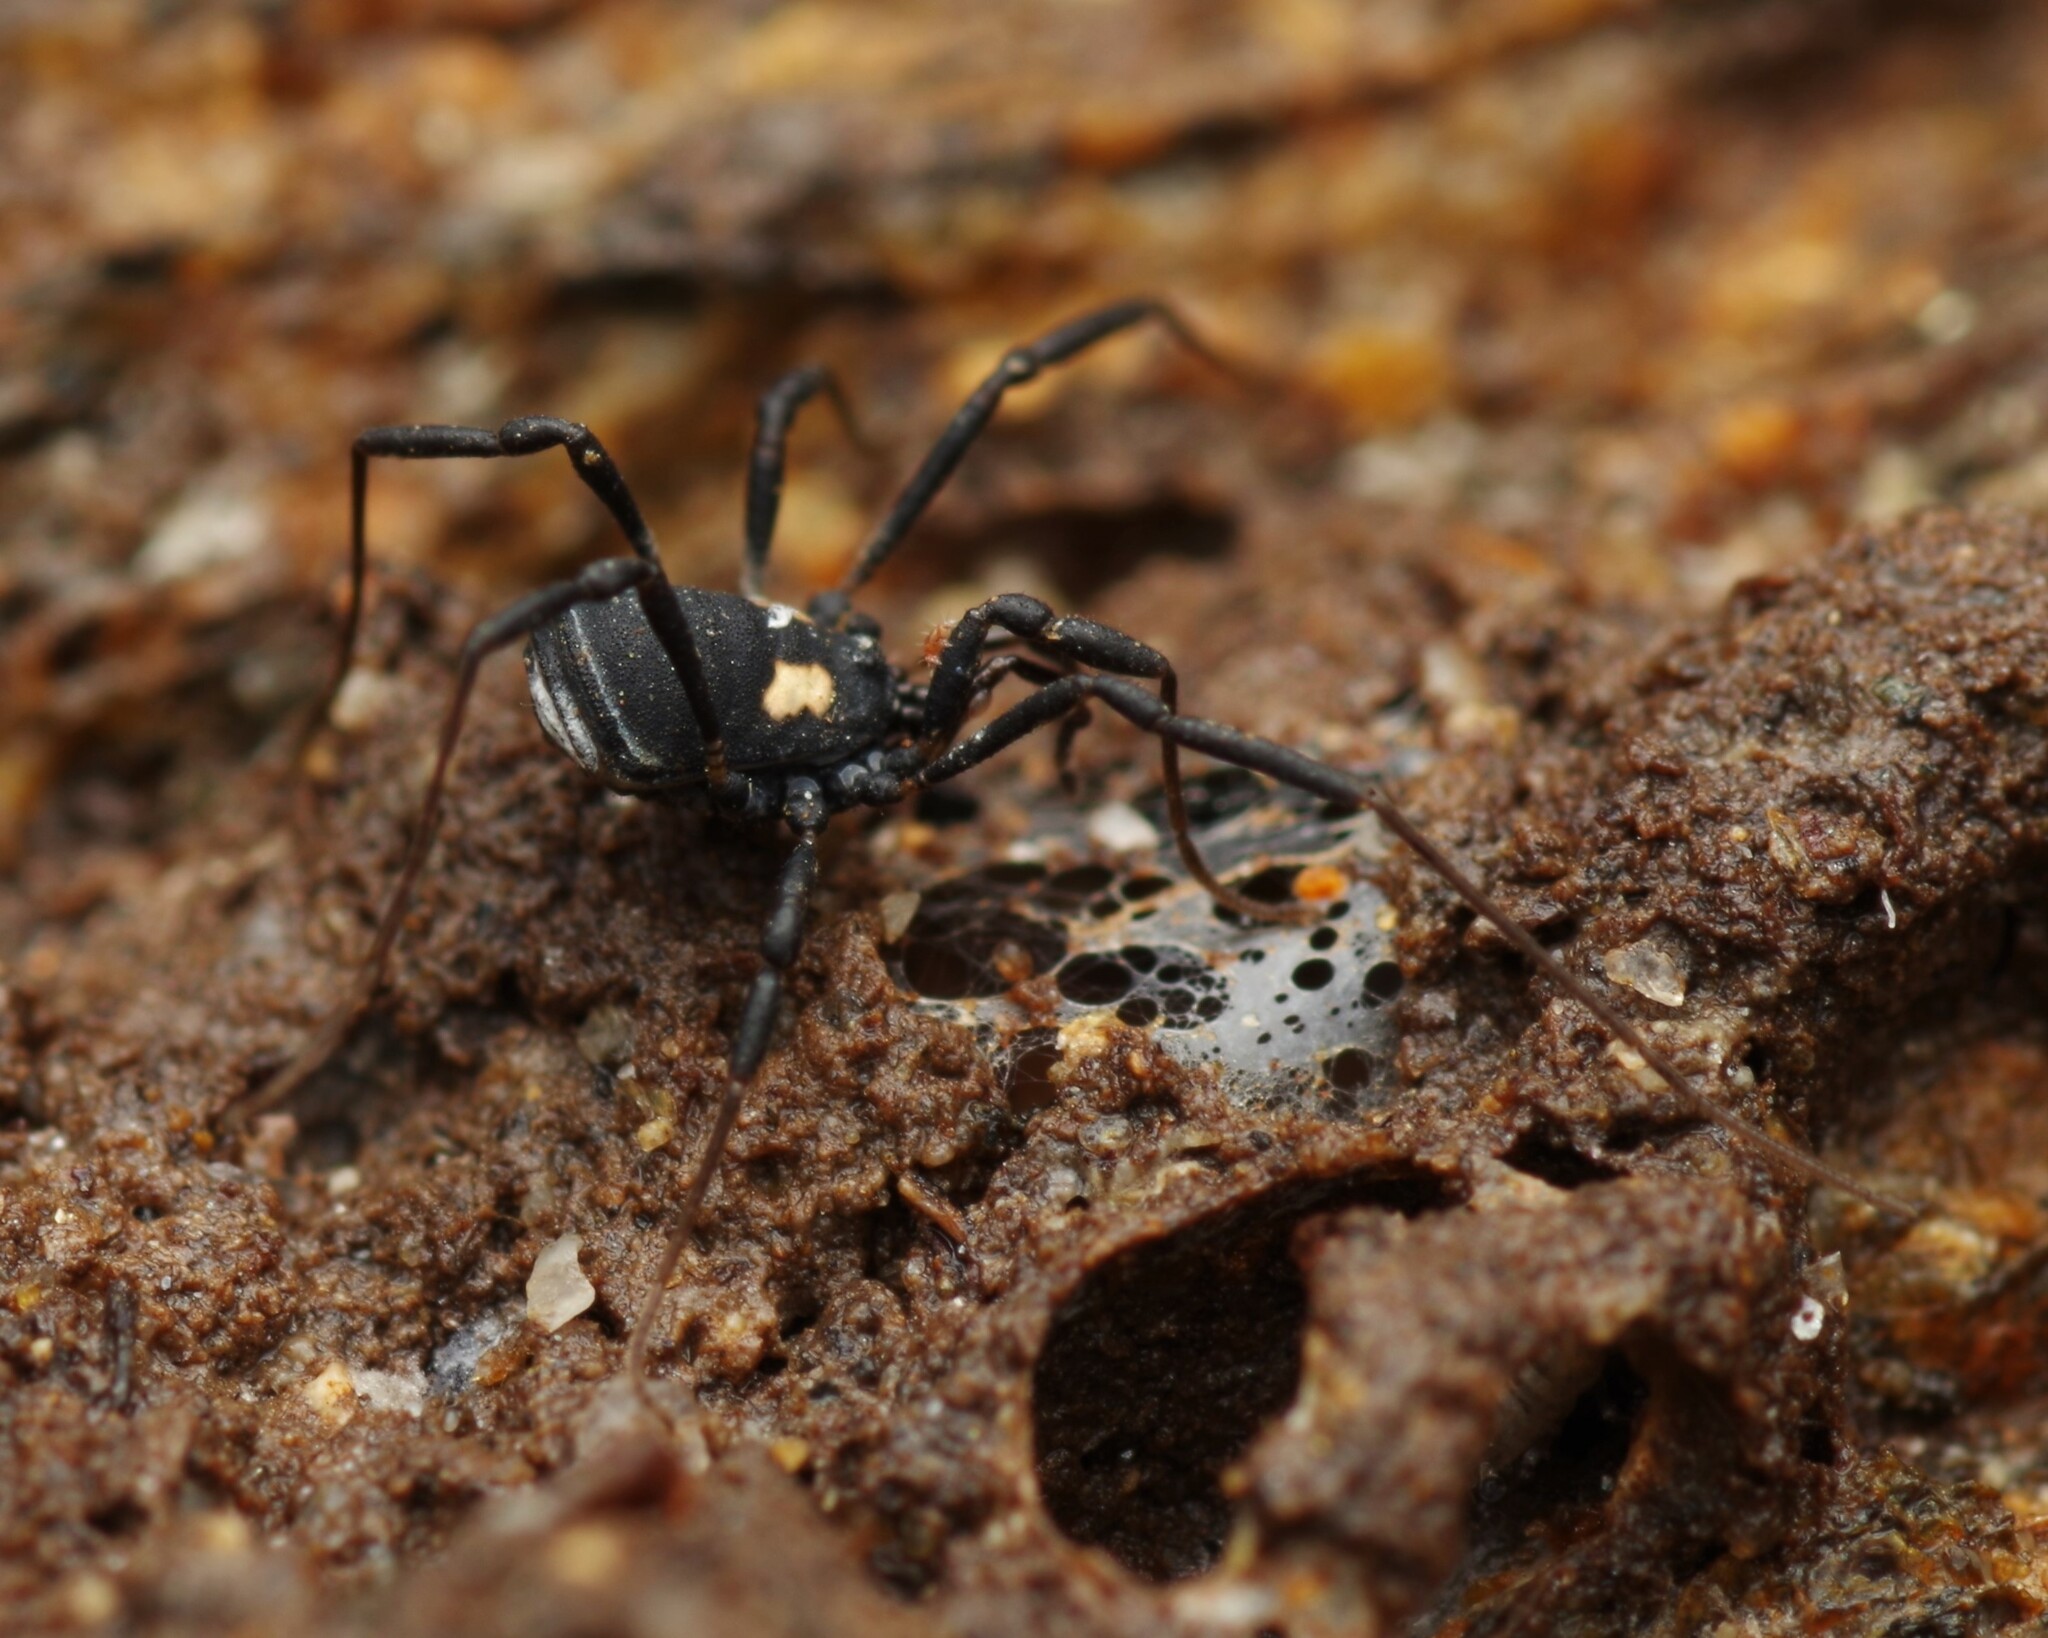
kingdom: Animalia
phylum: Arthropoda
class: Arachnida
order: Opiliones
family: Nemastomatidae
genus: Nemastoma
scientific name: Nemastoma bimaculatum
